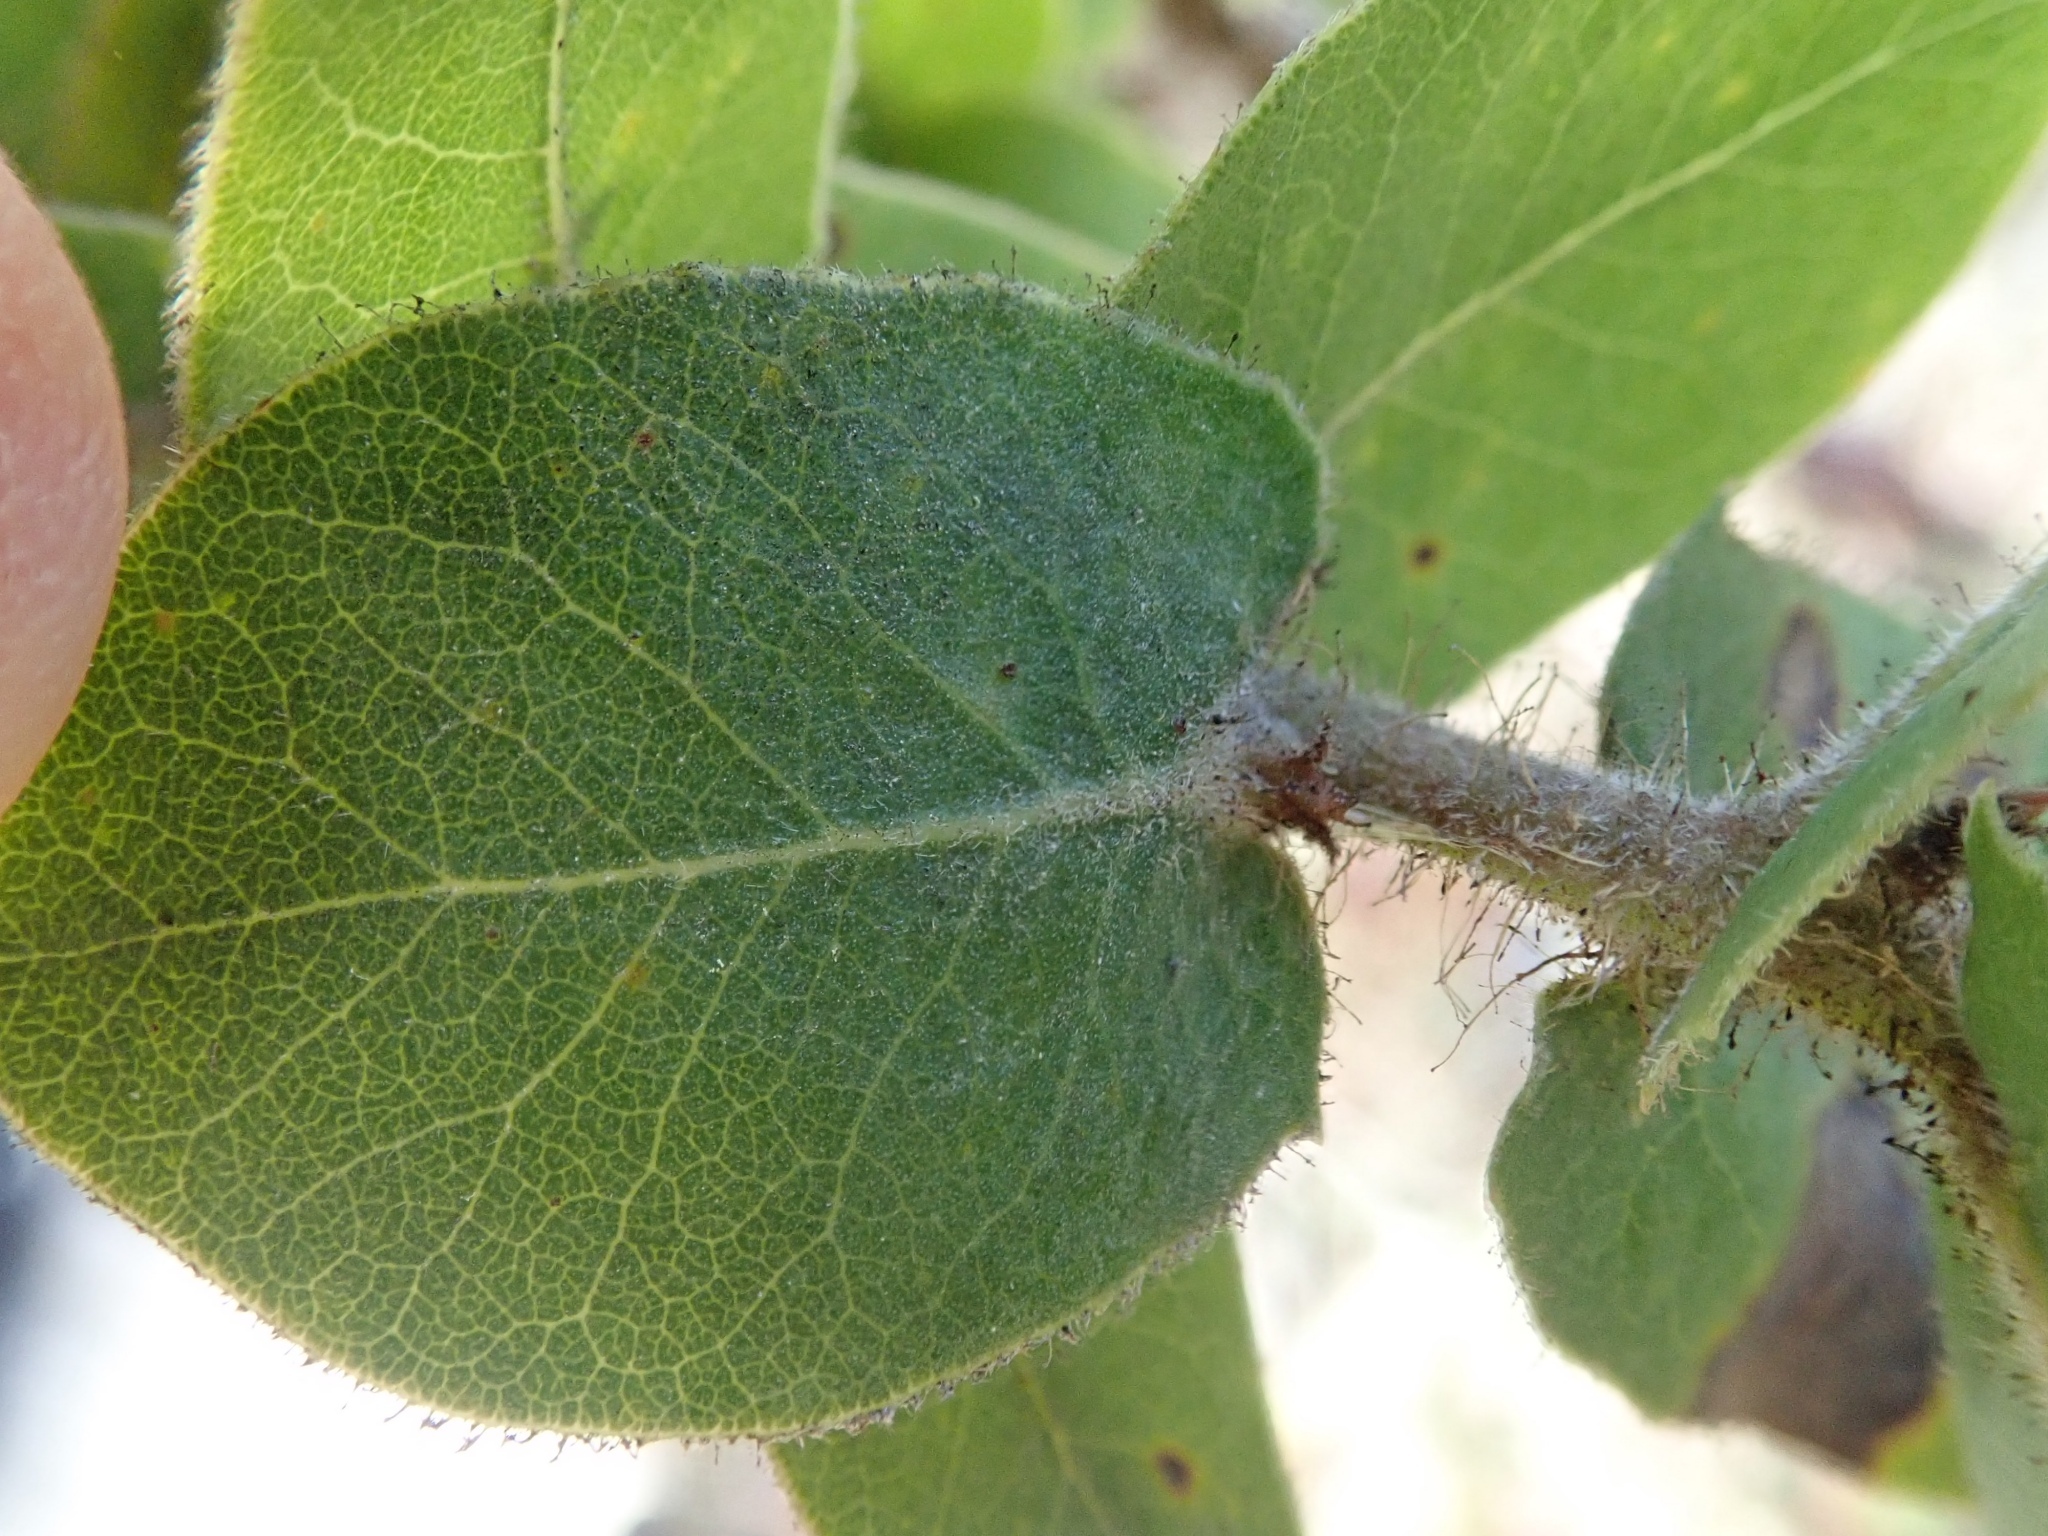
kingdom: Plantae
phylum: Tracheophyta
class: Magnoliopsida
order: Ericales
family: Ericaceae
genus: Arctostaphylos
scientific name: Arctostaphylos montaraensis
